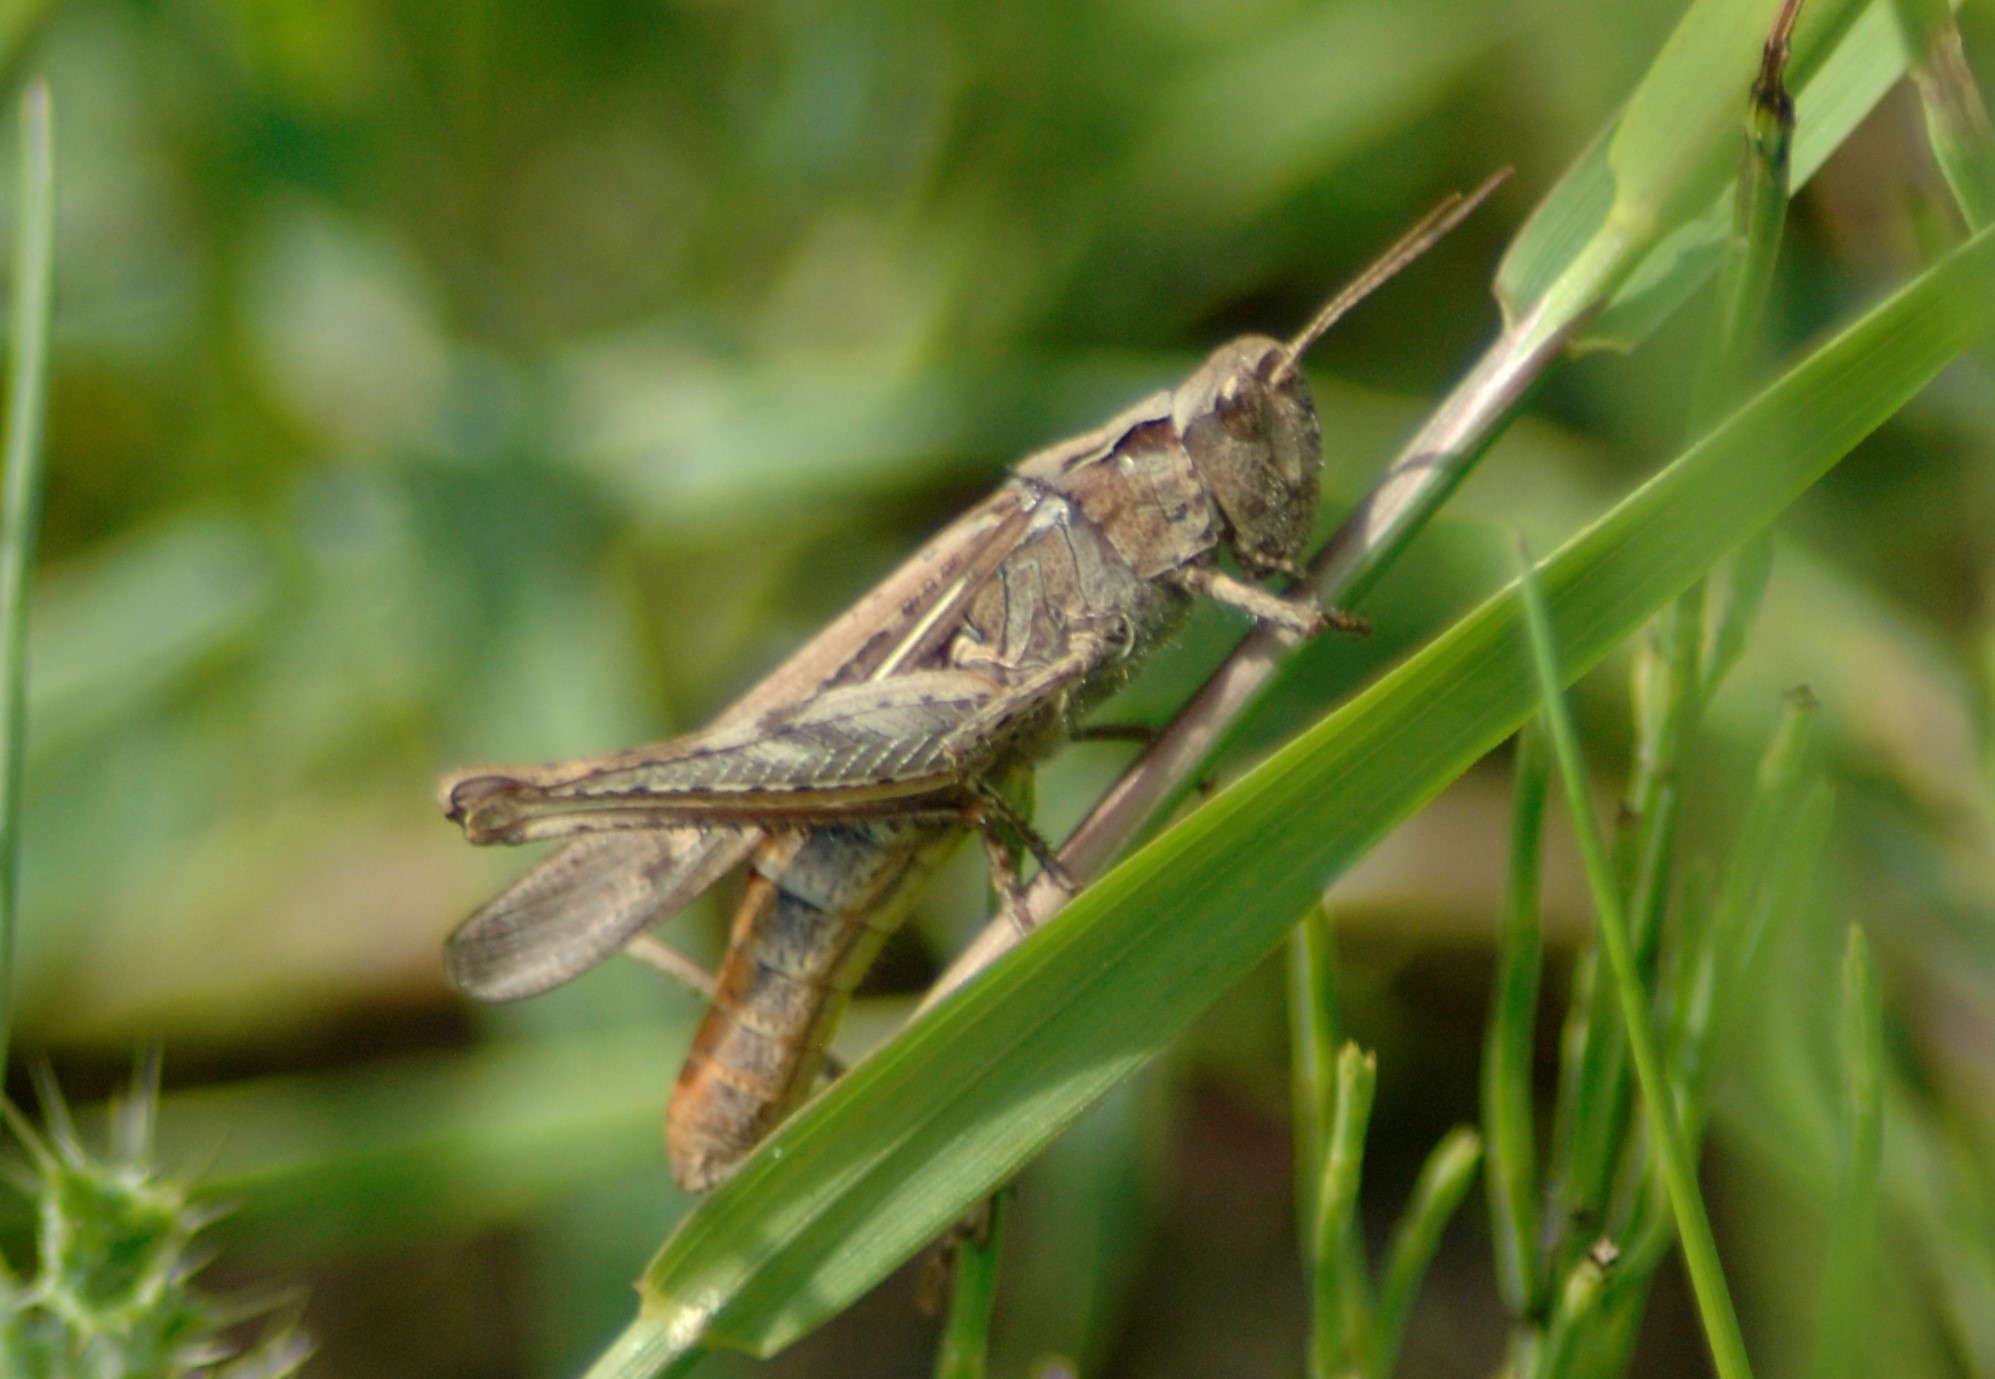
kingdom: Animalia
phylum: Arthropoda
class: Insecta
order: Orthoptera
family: Acrididae
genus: Chorthippus
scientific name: Chorthippus brunneus
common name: Field grasshopper
